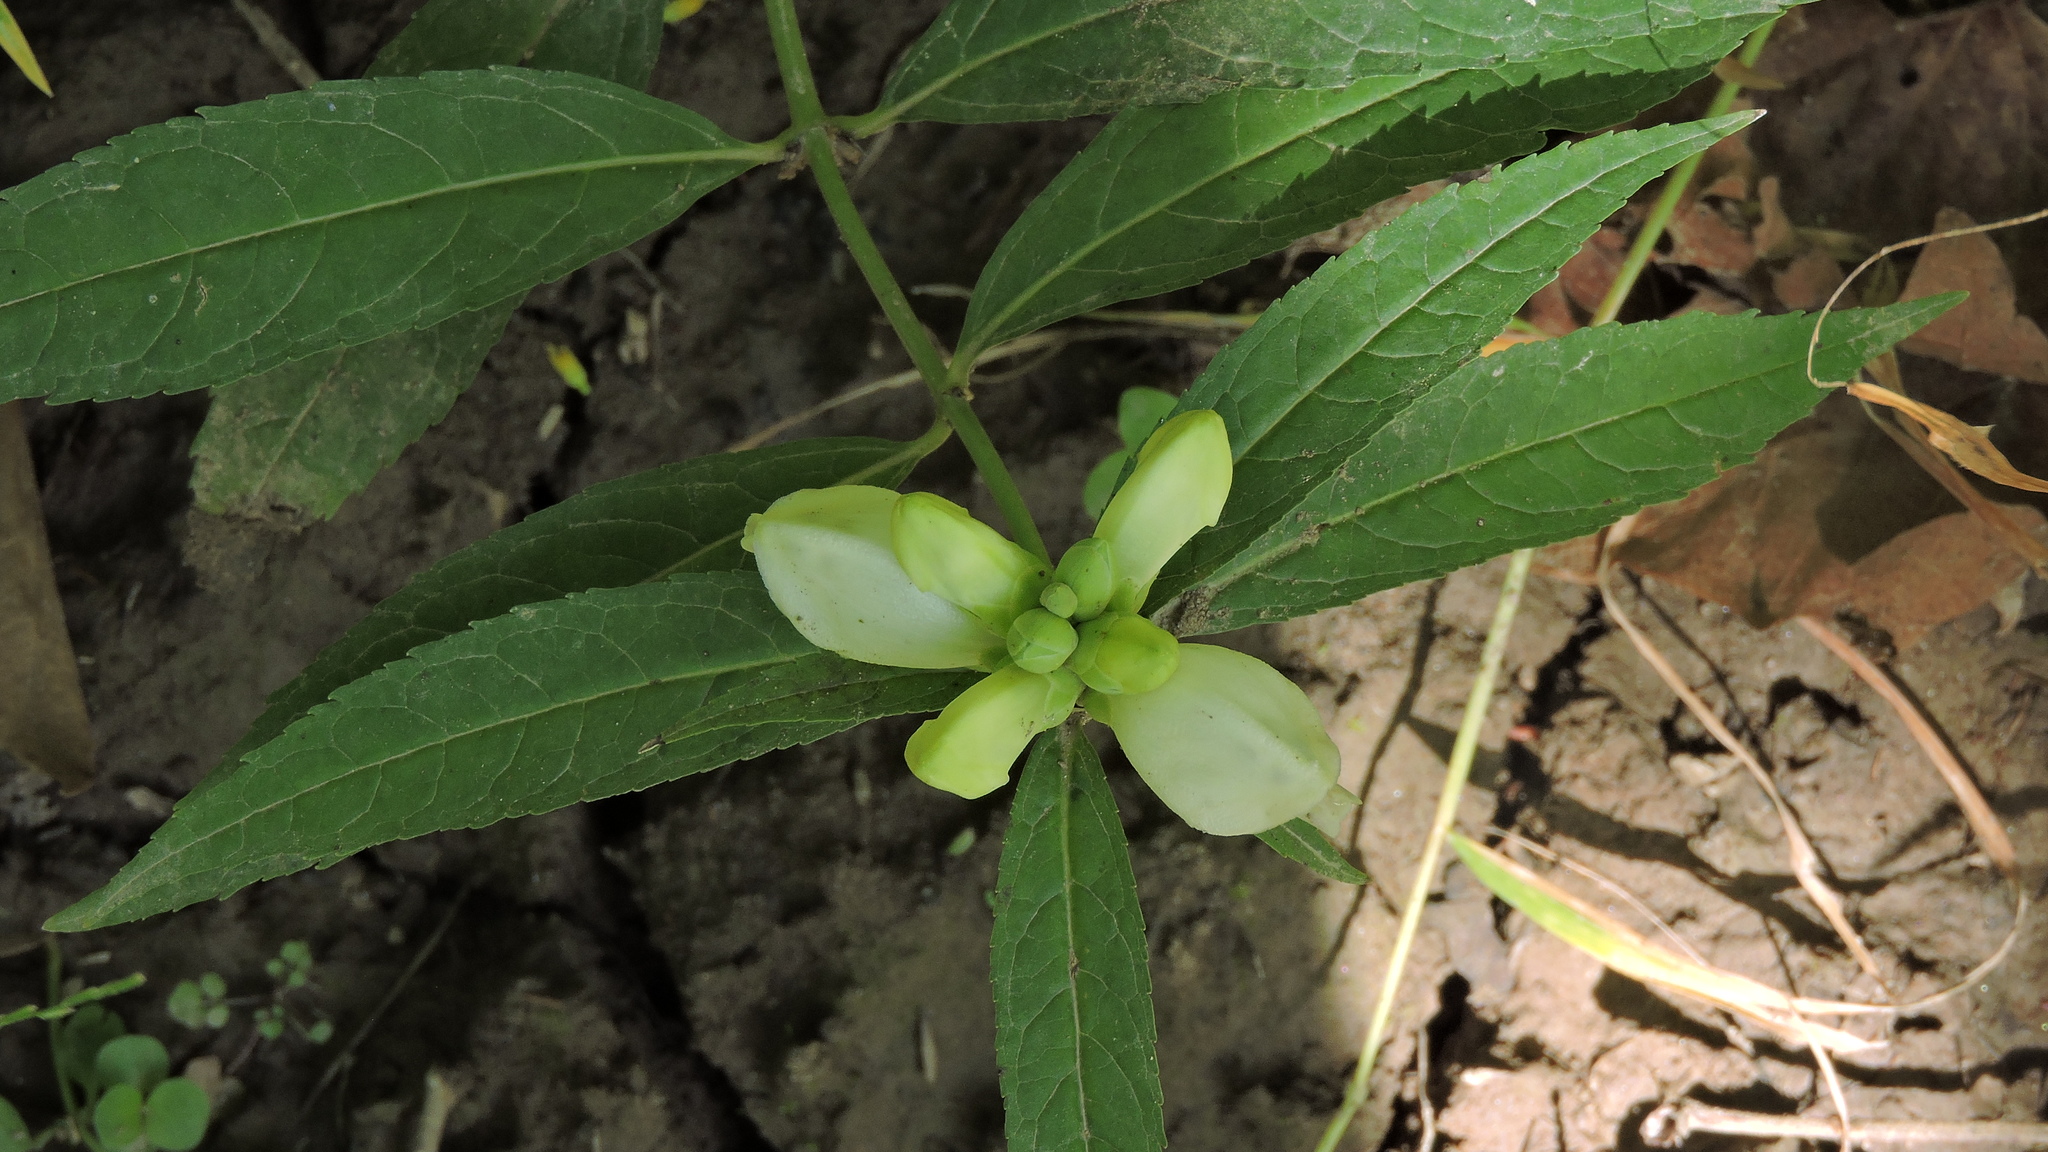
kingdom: Plantae
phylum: Tracheophyta
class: Magnoliopsida
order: Lamiales
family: Plantaginaceae
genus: Chelone
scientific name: Chelone glabra
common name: Snakehead
